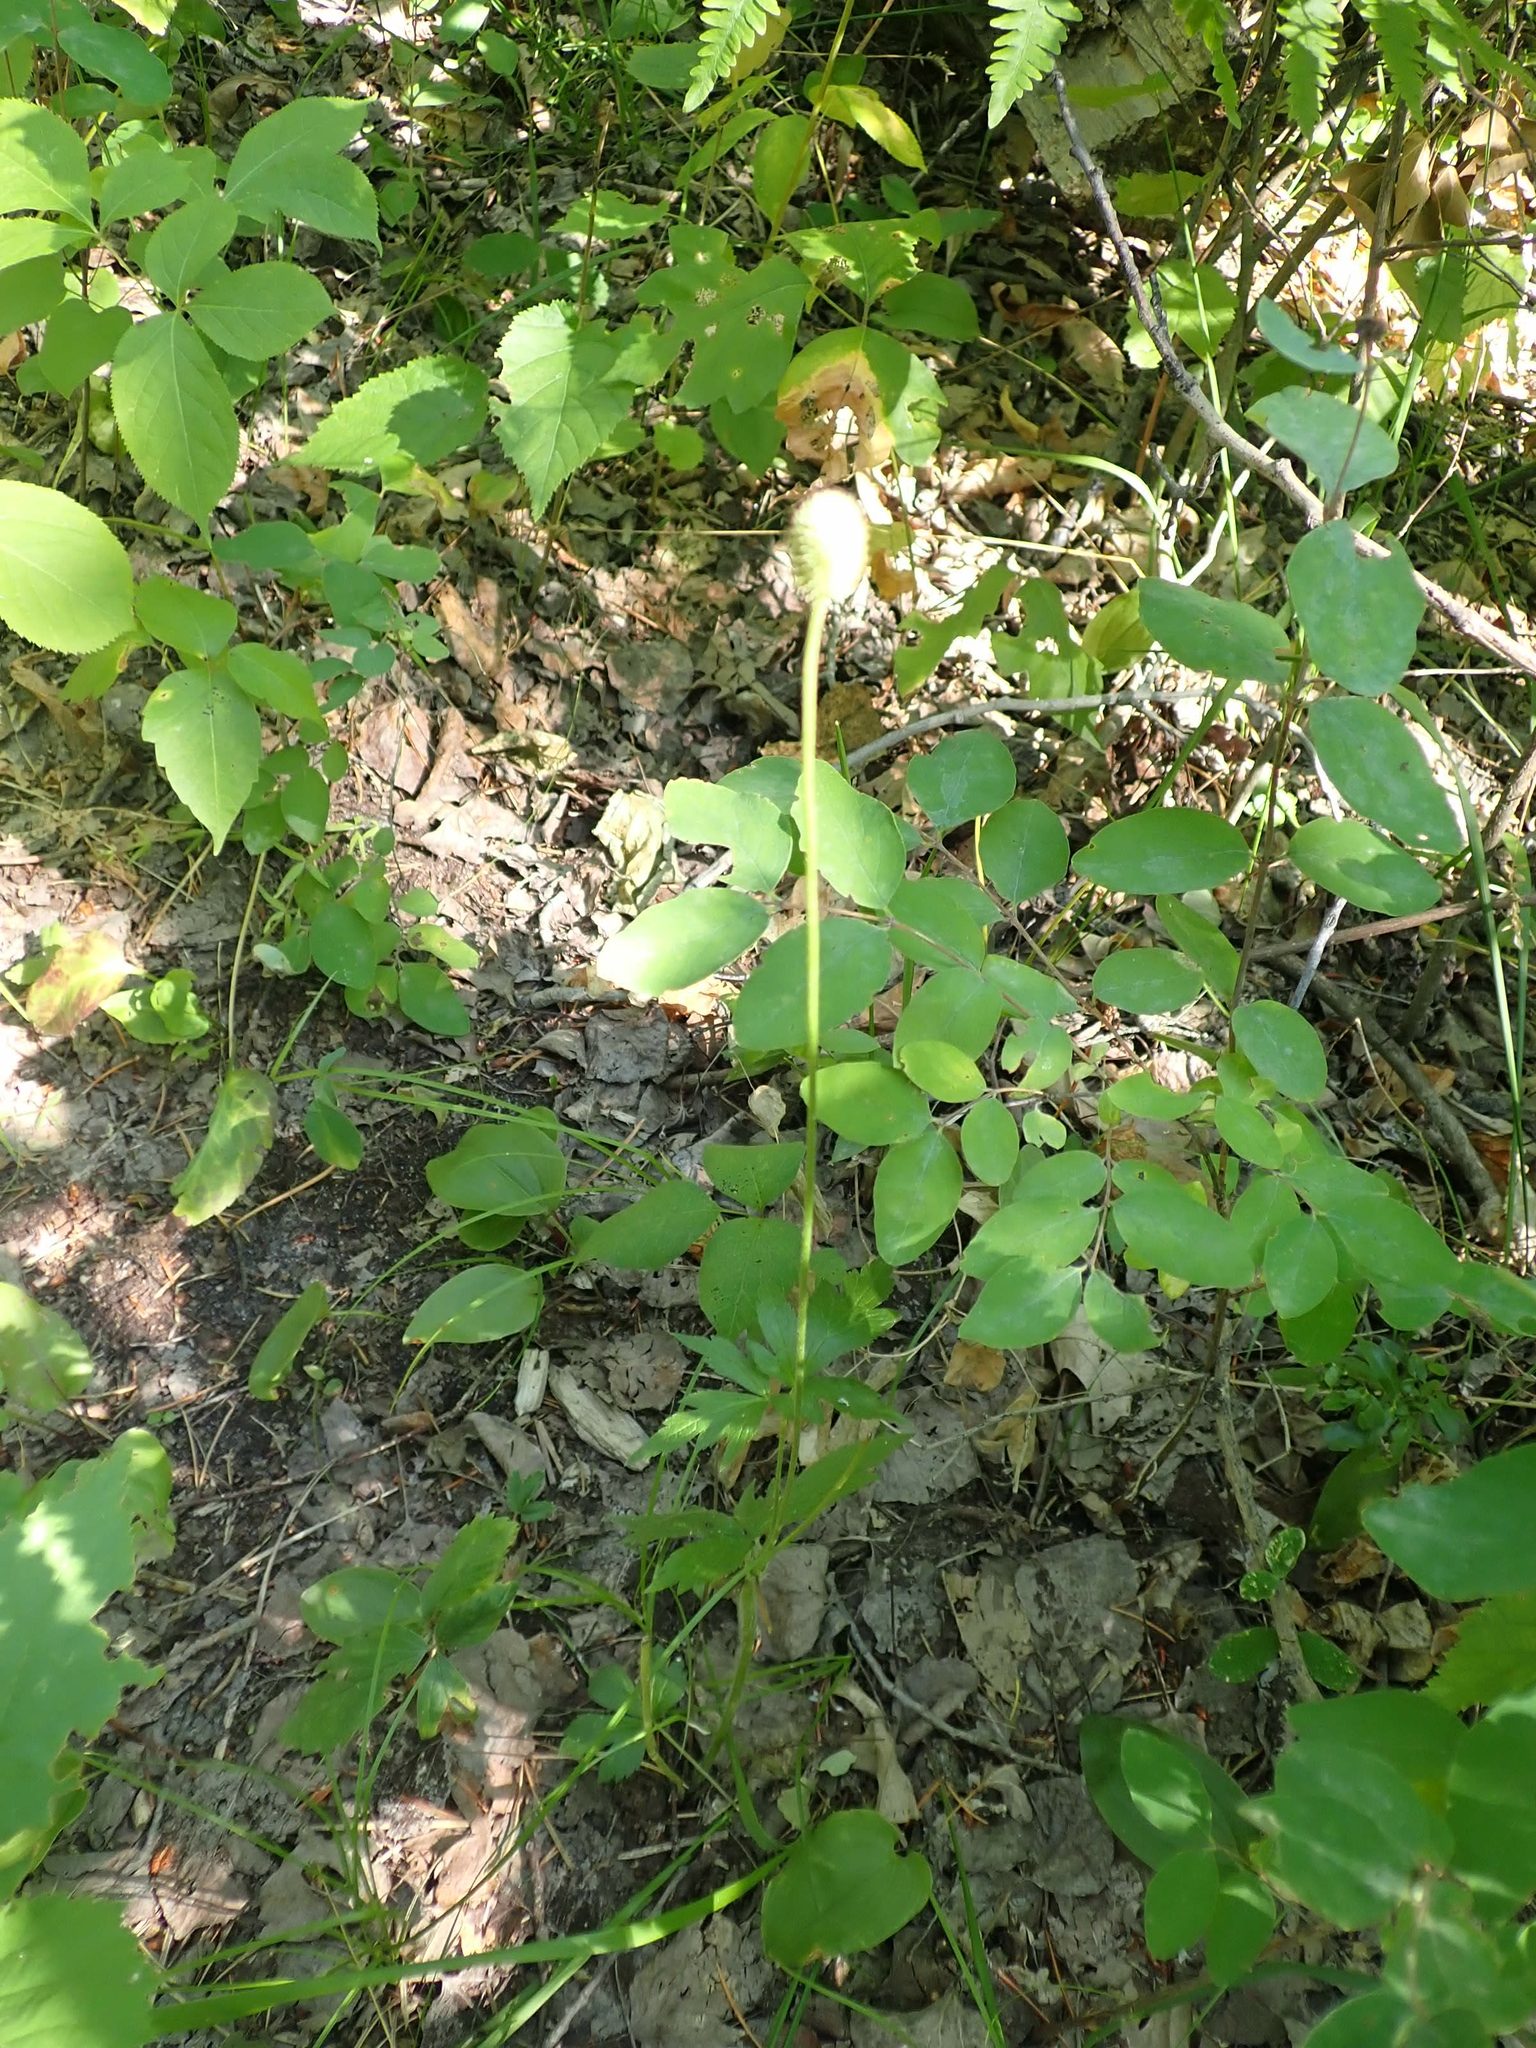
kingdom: Plantae
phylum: Tracheophyta
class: Magnoliopsida
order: Ranunculales
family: Ranunculaceae
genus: Anemone
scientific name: Anemone virginiana
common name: Tall anemone
